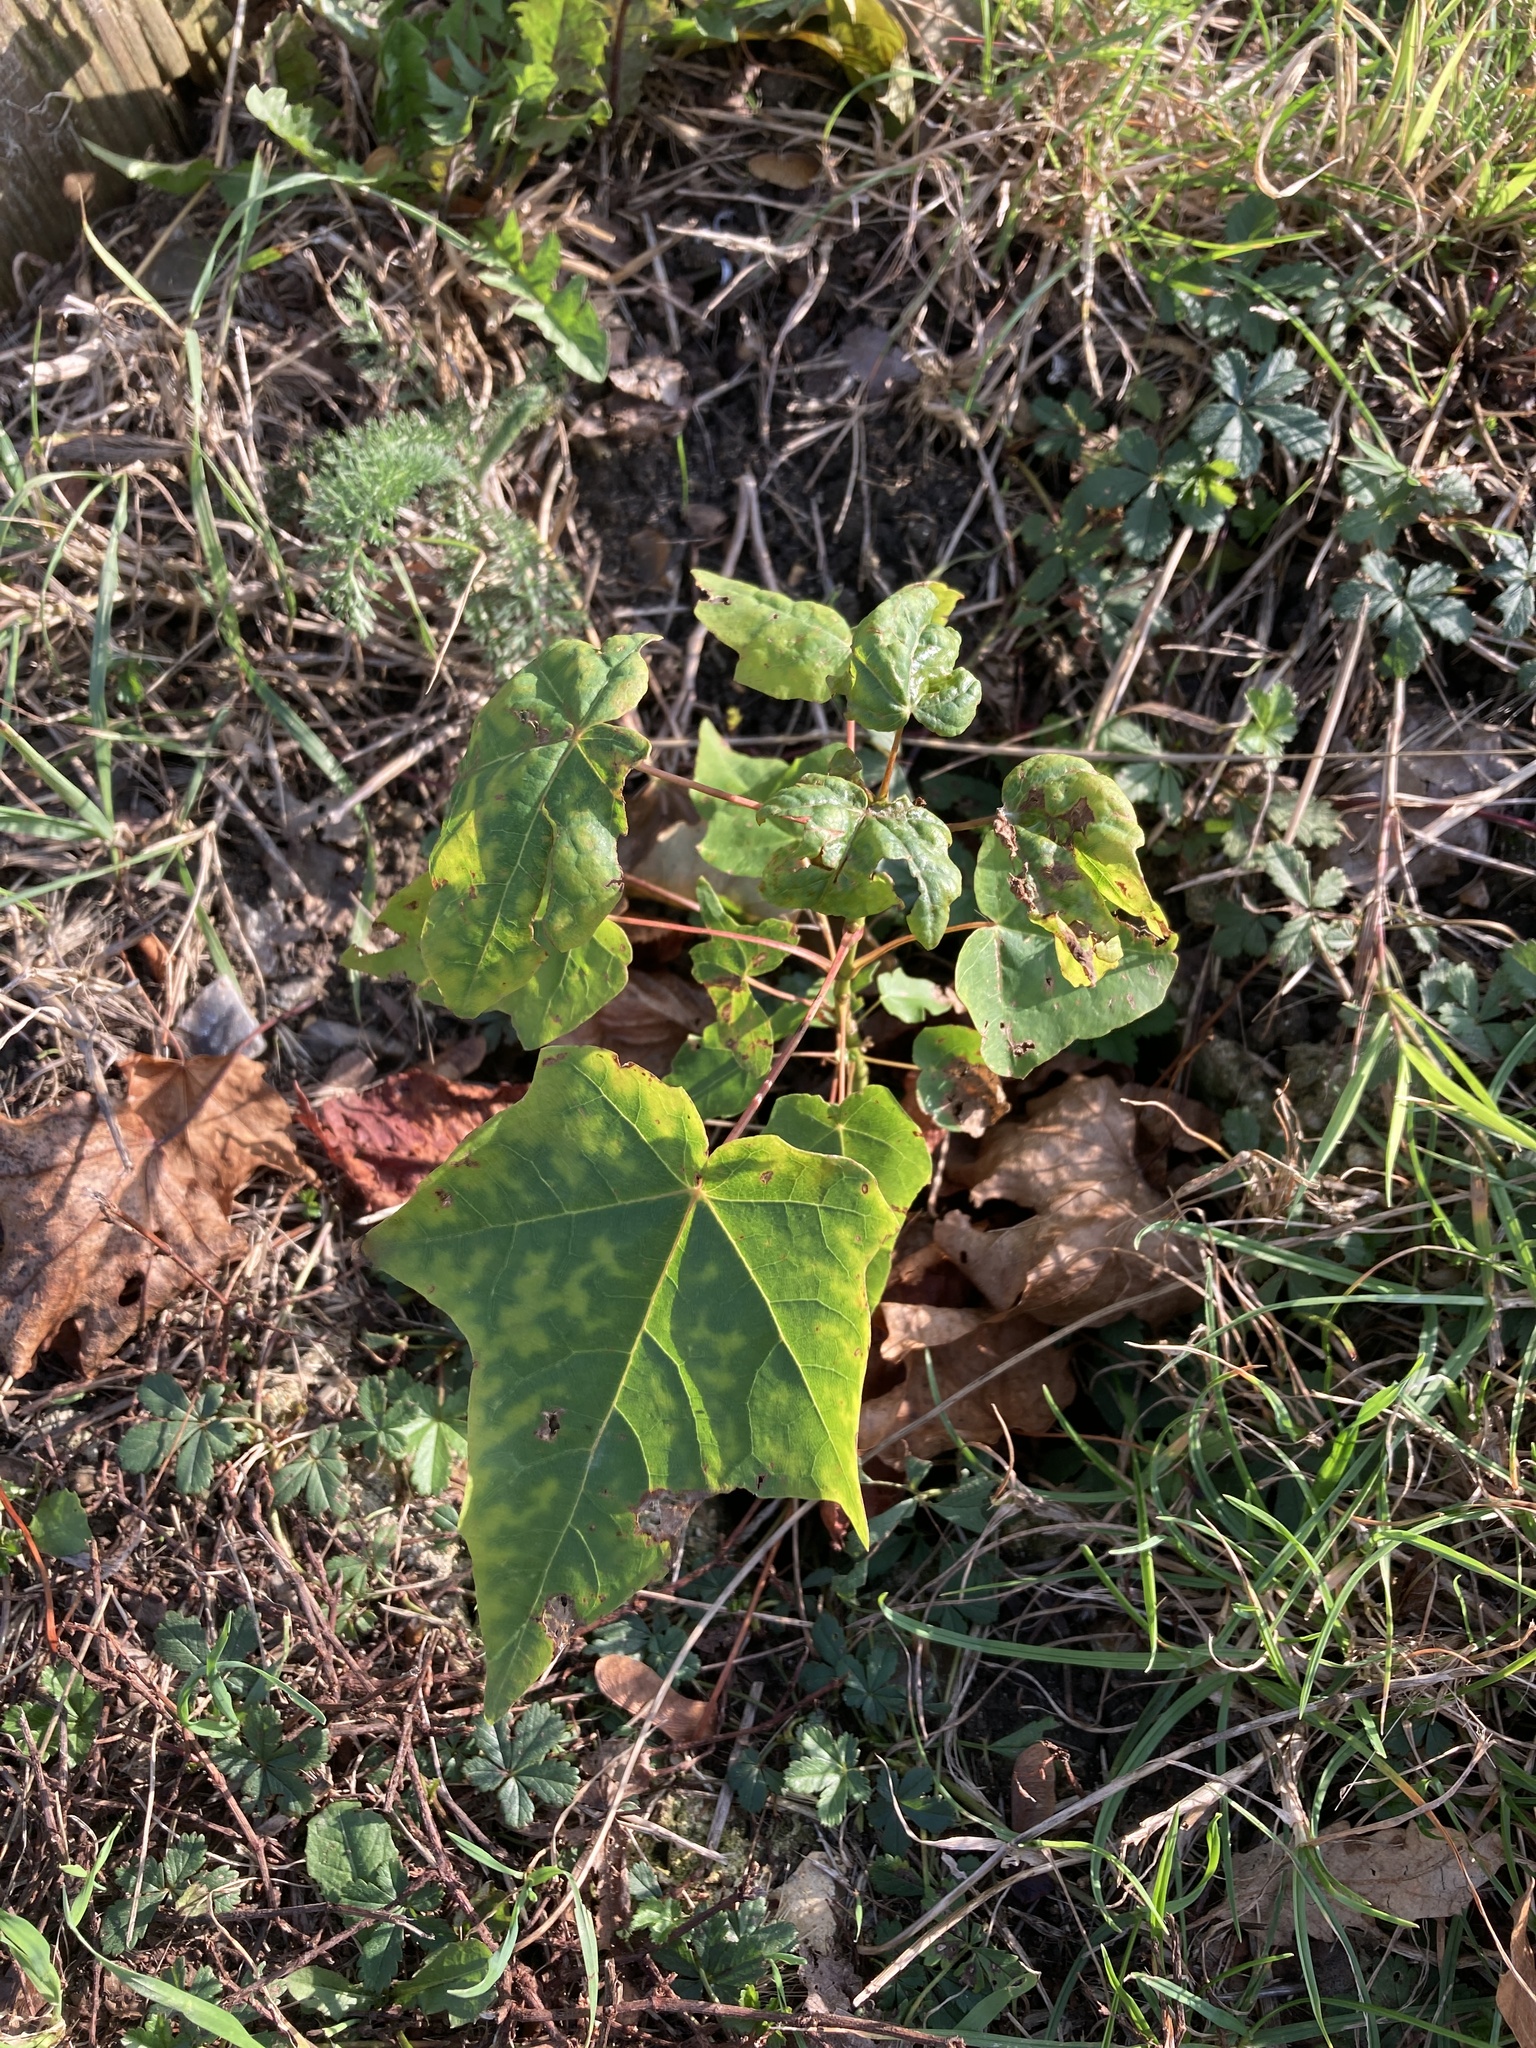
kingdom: Plantae
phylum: Tracheophyta
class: Magnoliopsida
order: Sapindales
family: Sapindaceae
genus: Acer
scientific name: Acer cappadocicum
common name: Cappadocian maple
